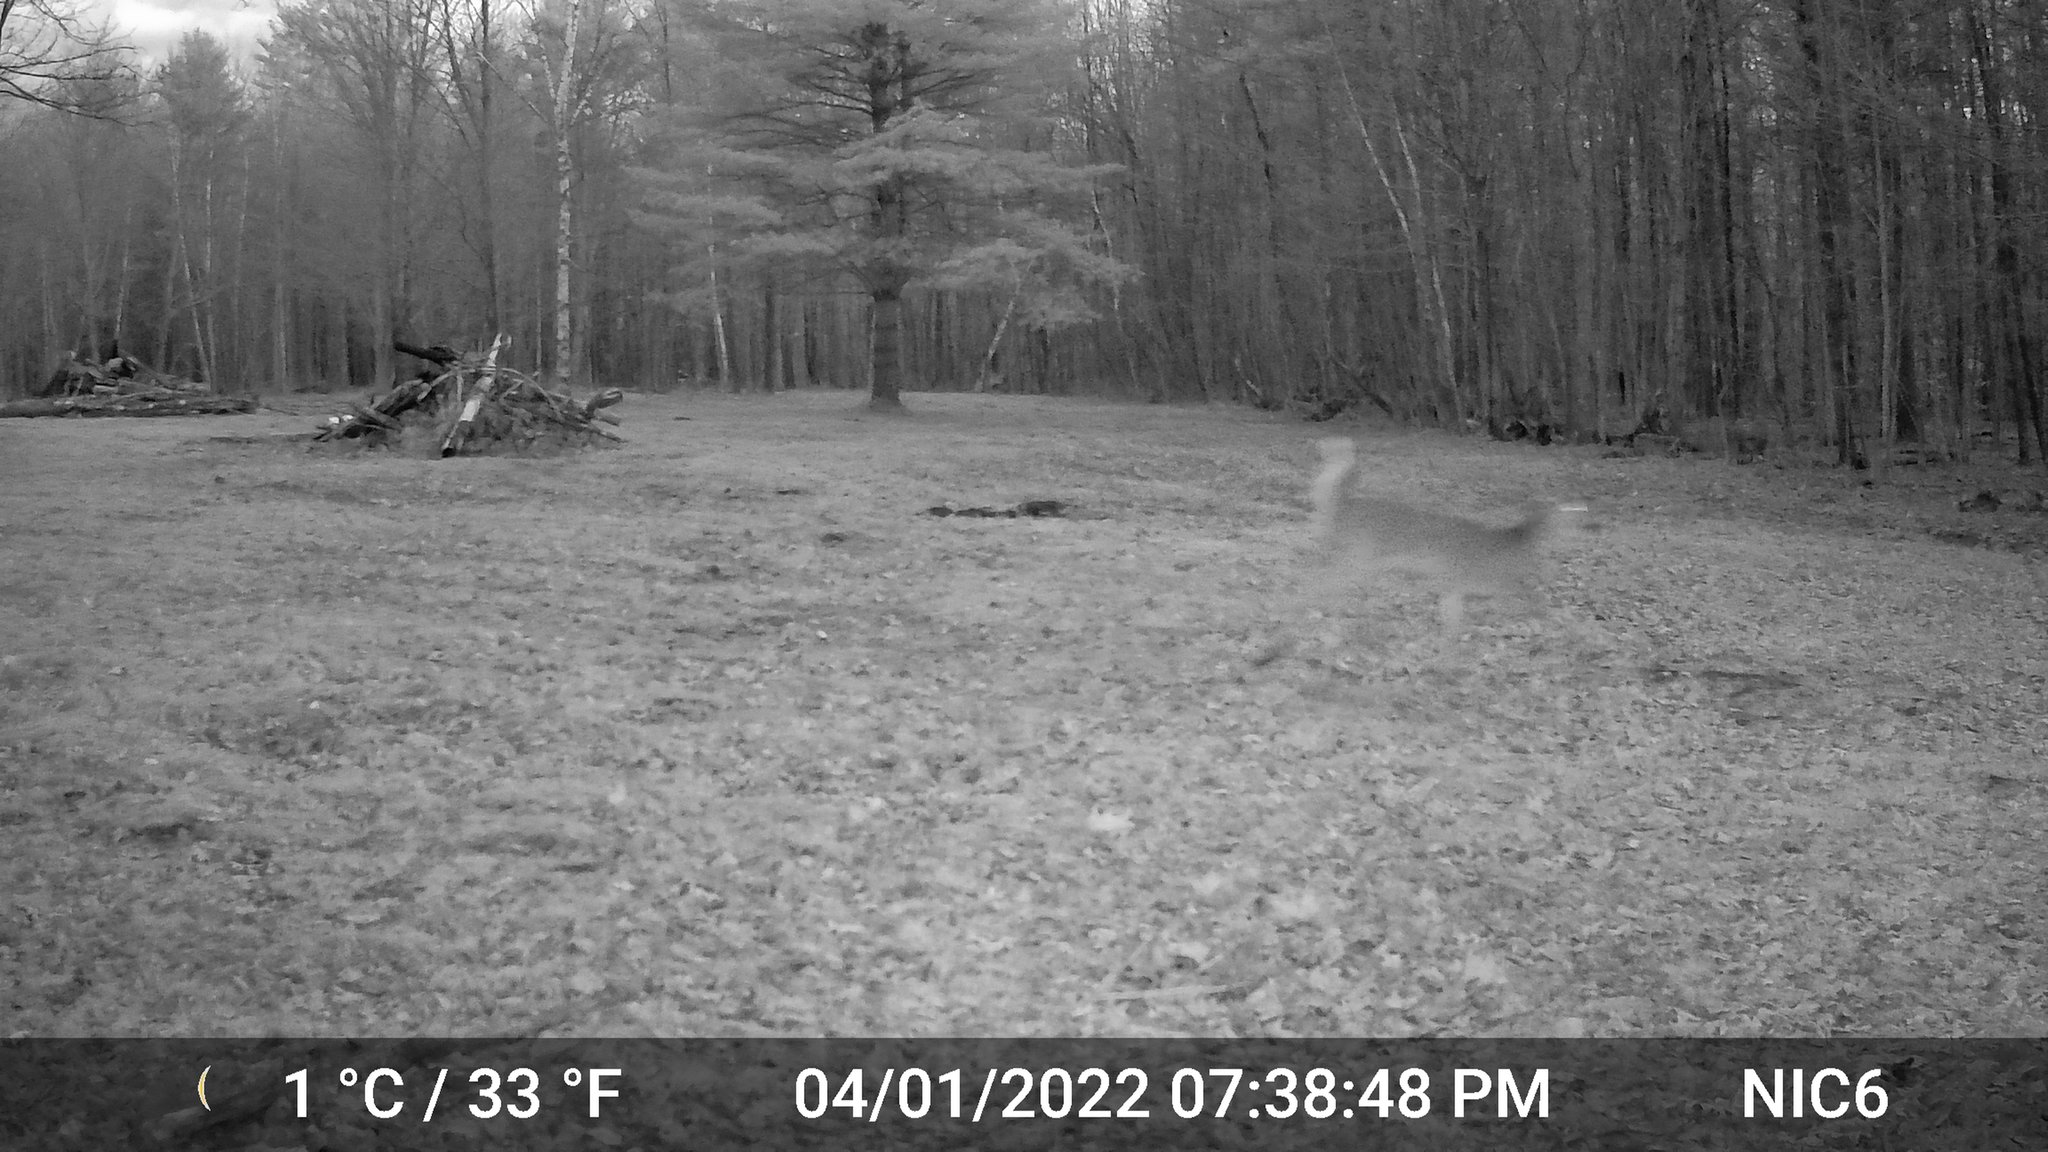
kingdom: Animalia
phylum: Chordata
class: Mammalia
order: Artiodactyla
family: Cervidae
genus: Odocoileus
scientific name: Odocoileus virginianus
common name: White-tailed deer
